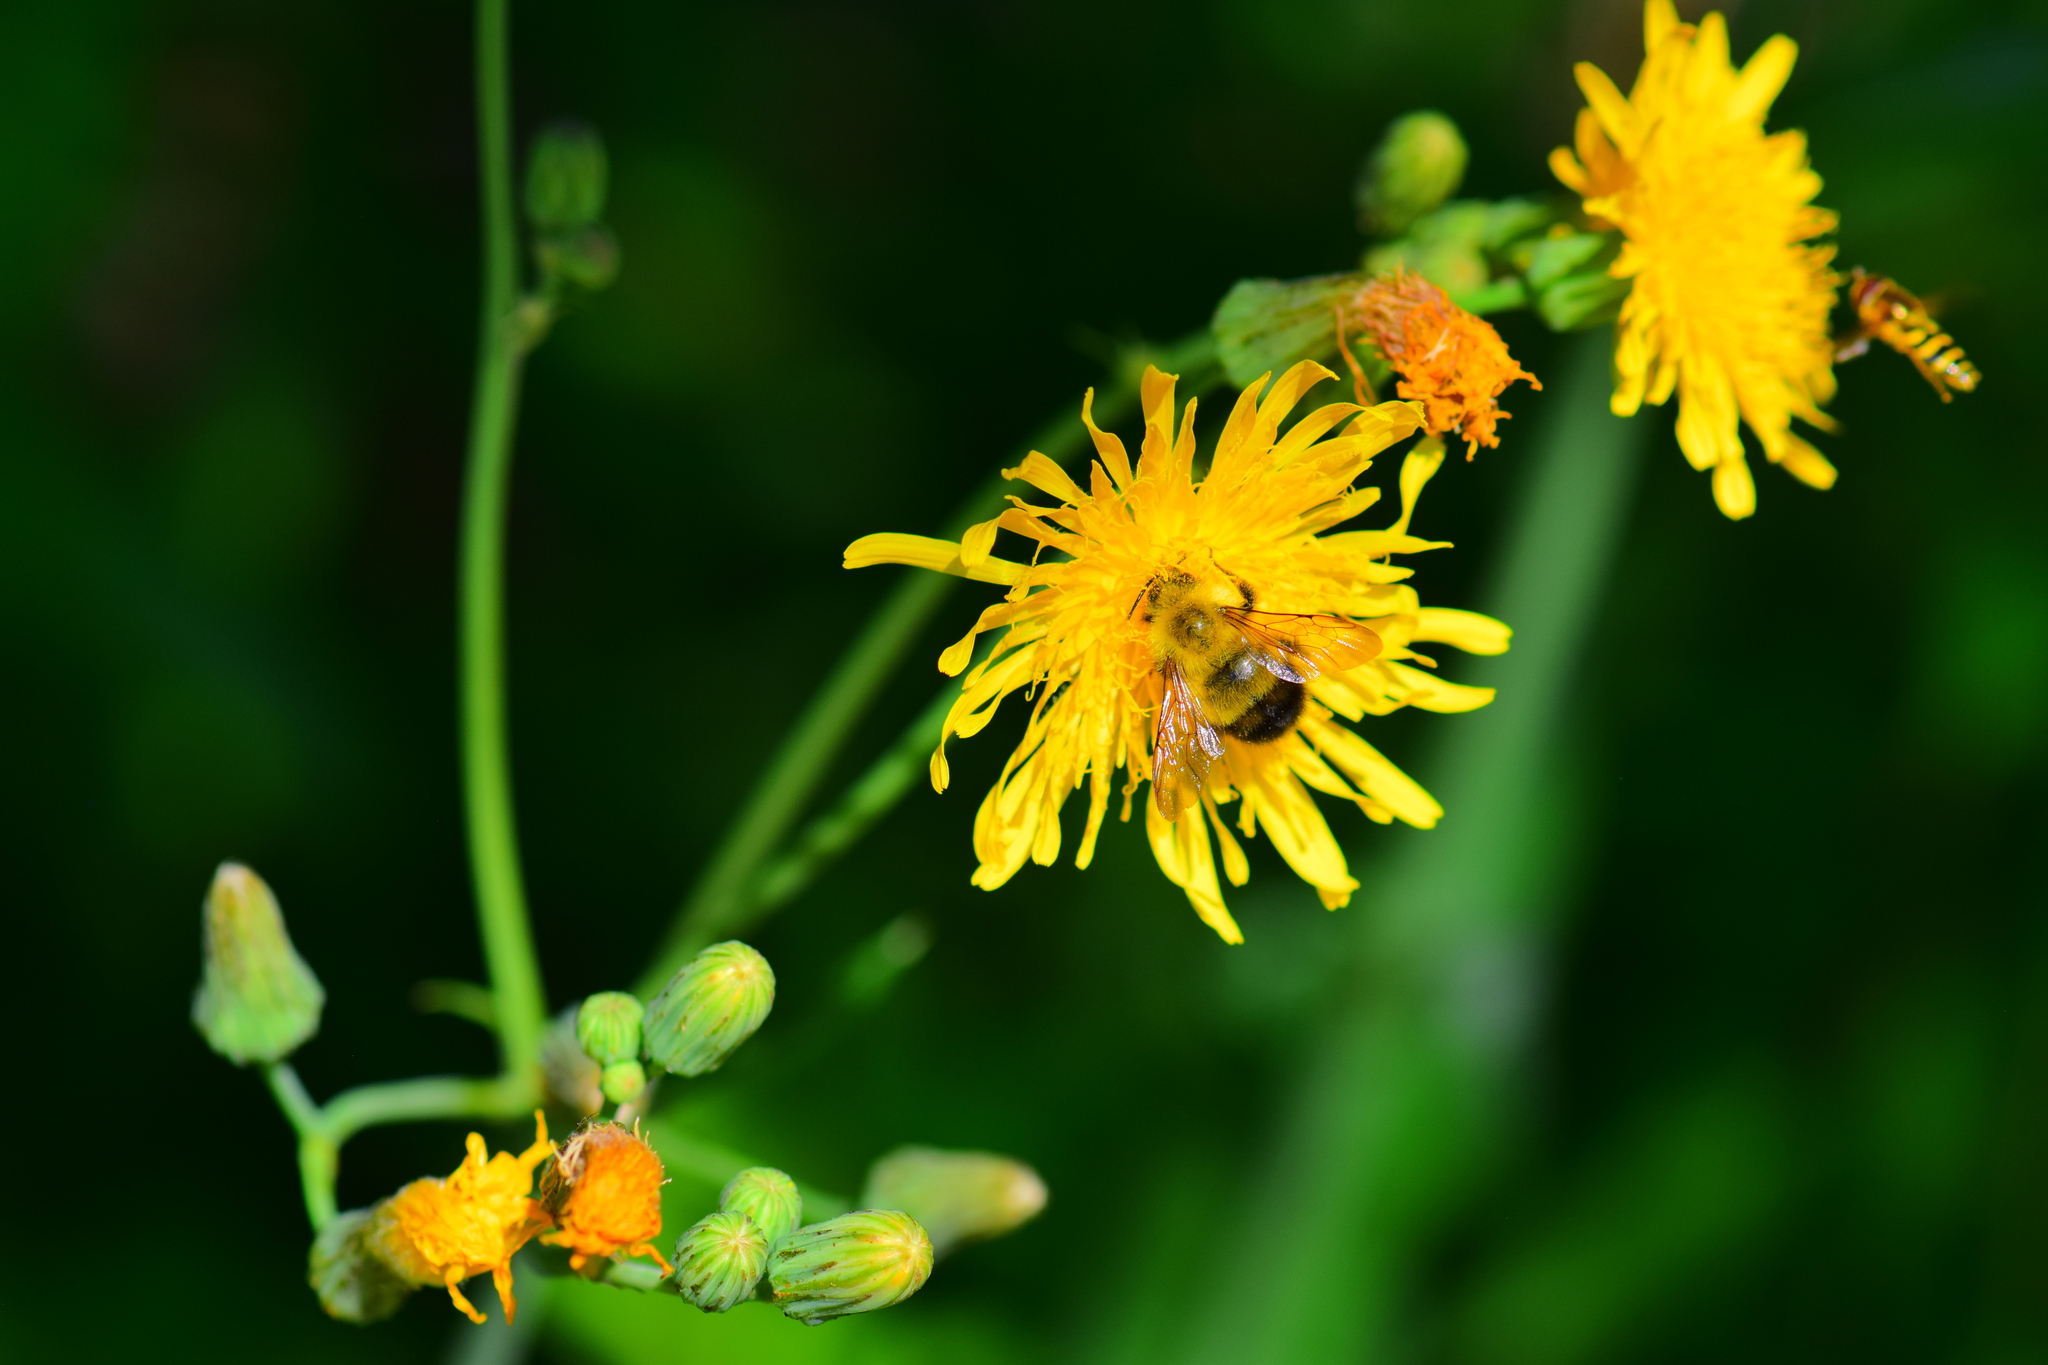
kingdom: Animalia
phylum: Arthropoda
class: Insecta
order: Hymenoptera
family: Apidae
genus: Bombus
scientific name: Bombus perplexus
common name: Confusing bumble bee
